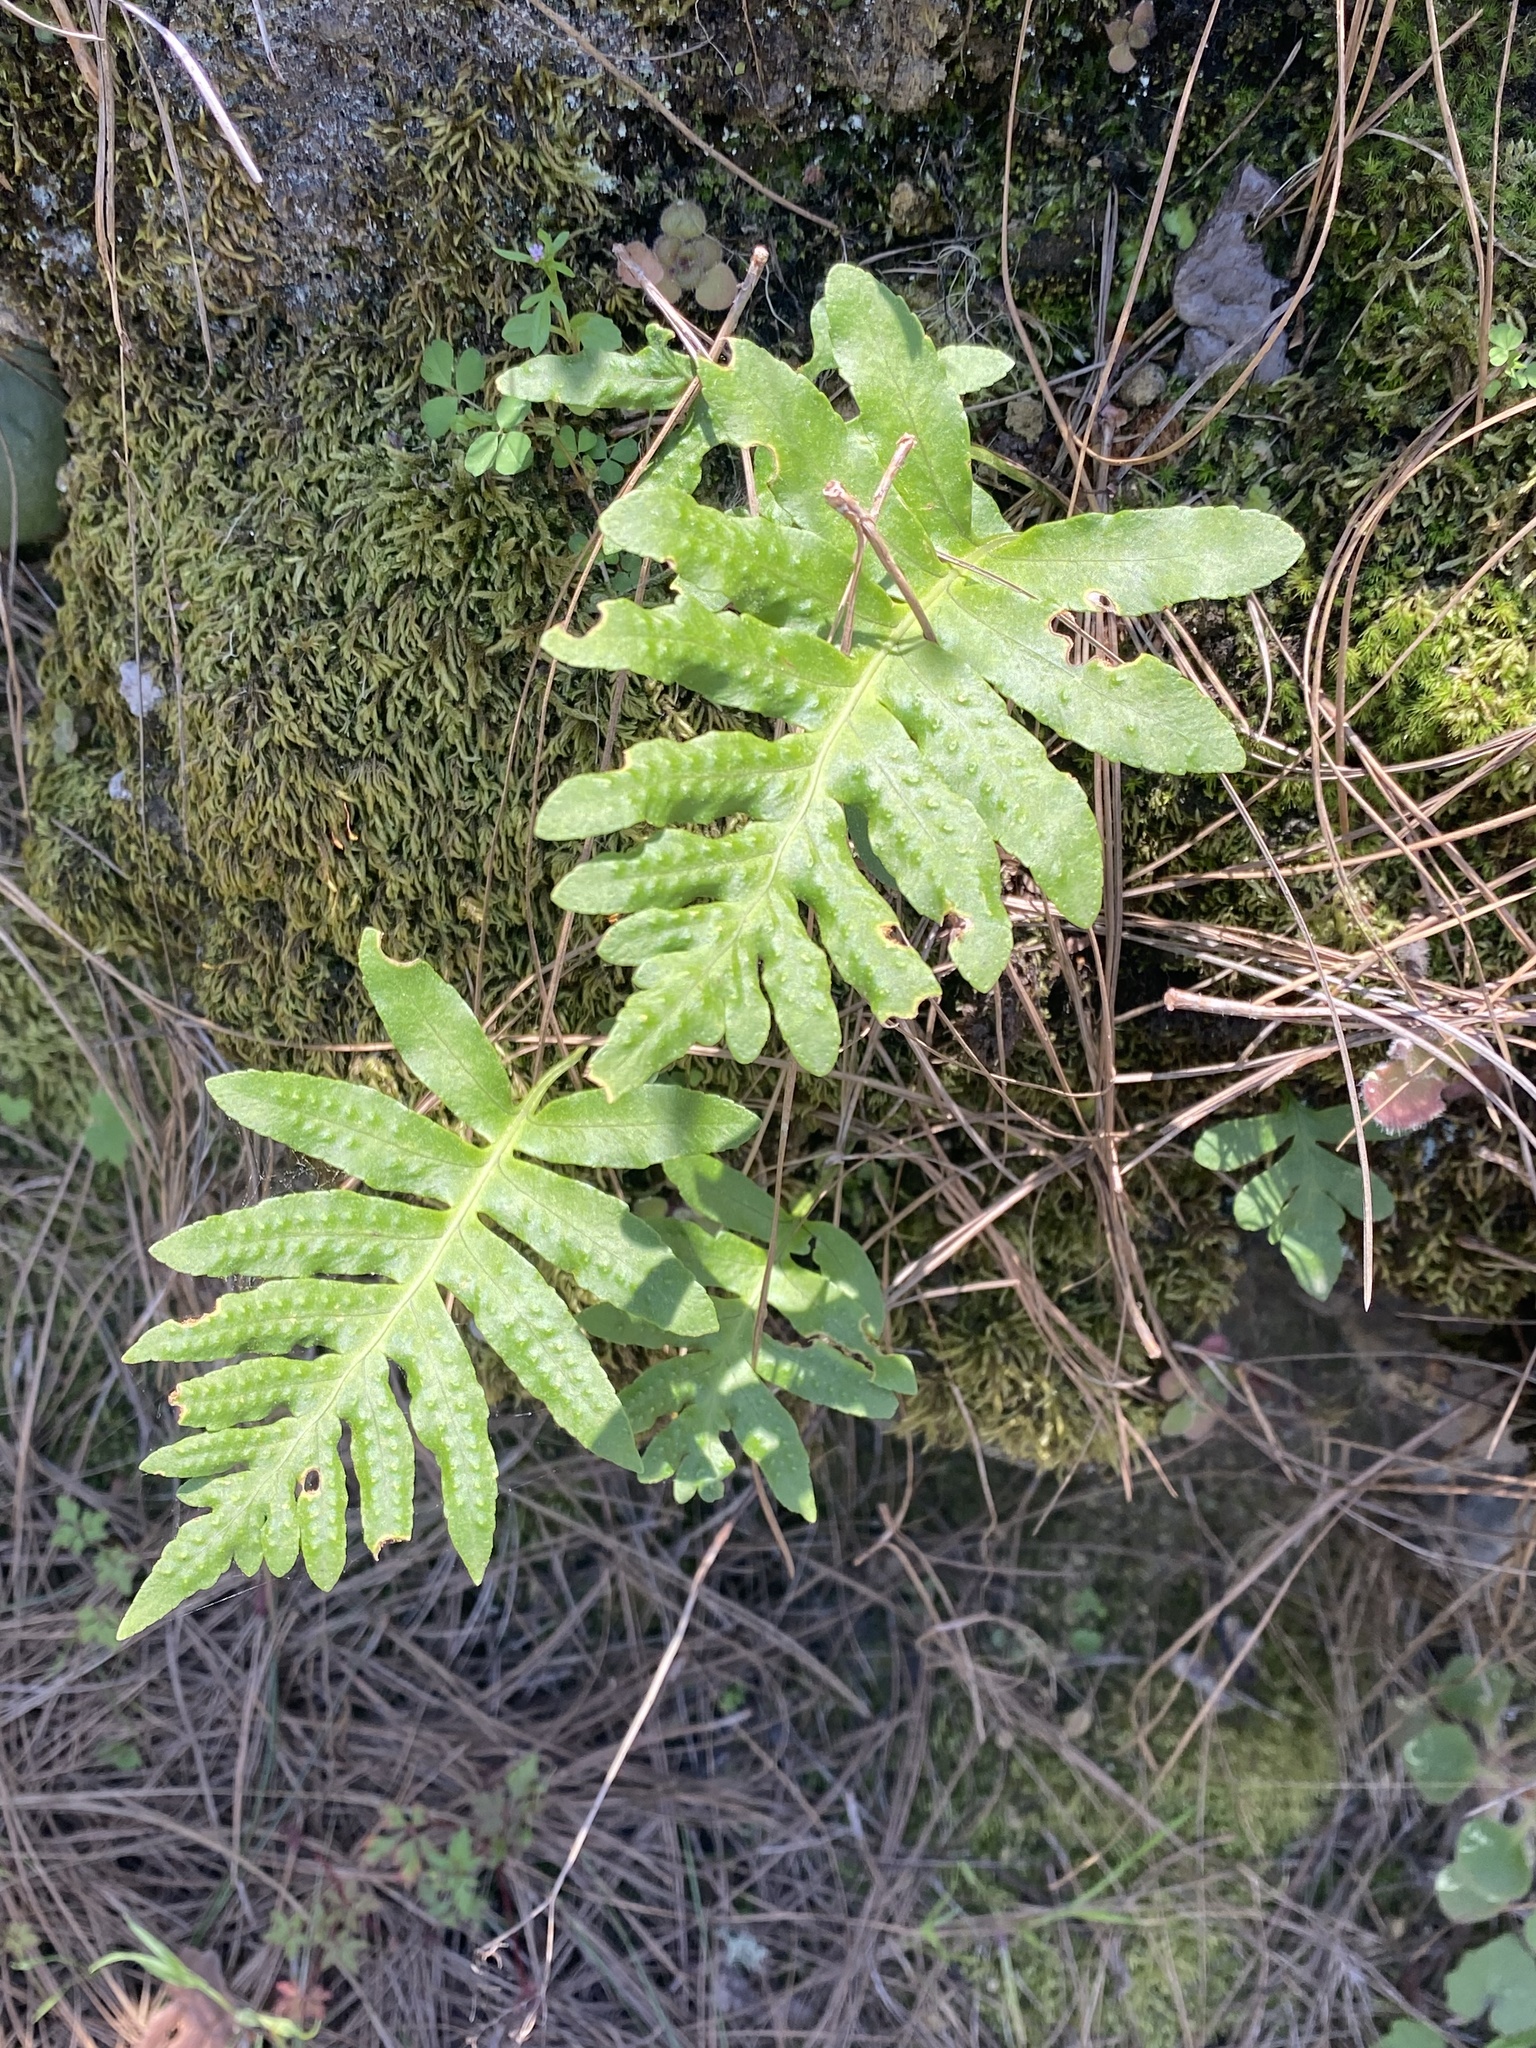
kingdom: Plantae
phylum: Tracheophyta
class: Polypodiopsida
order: Polypodiales
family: Polypodiaceae
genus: Polypodium
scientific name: Polypodium macaronesicum
